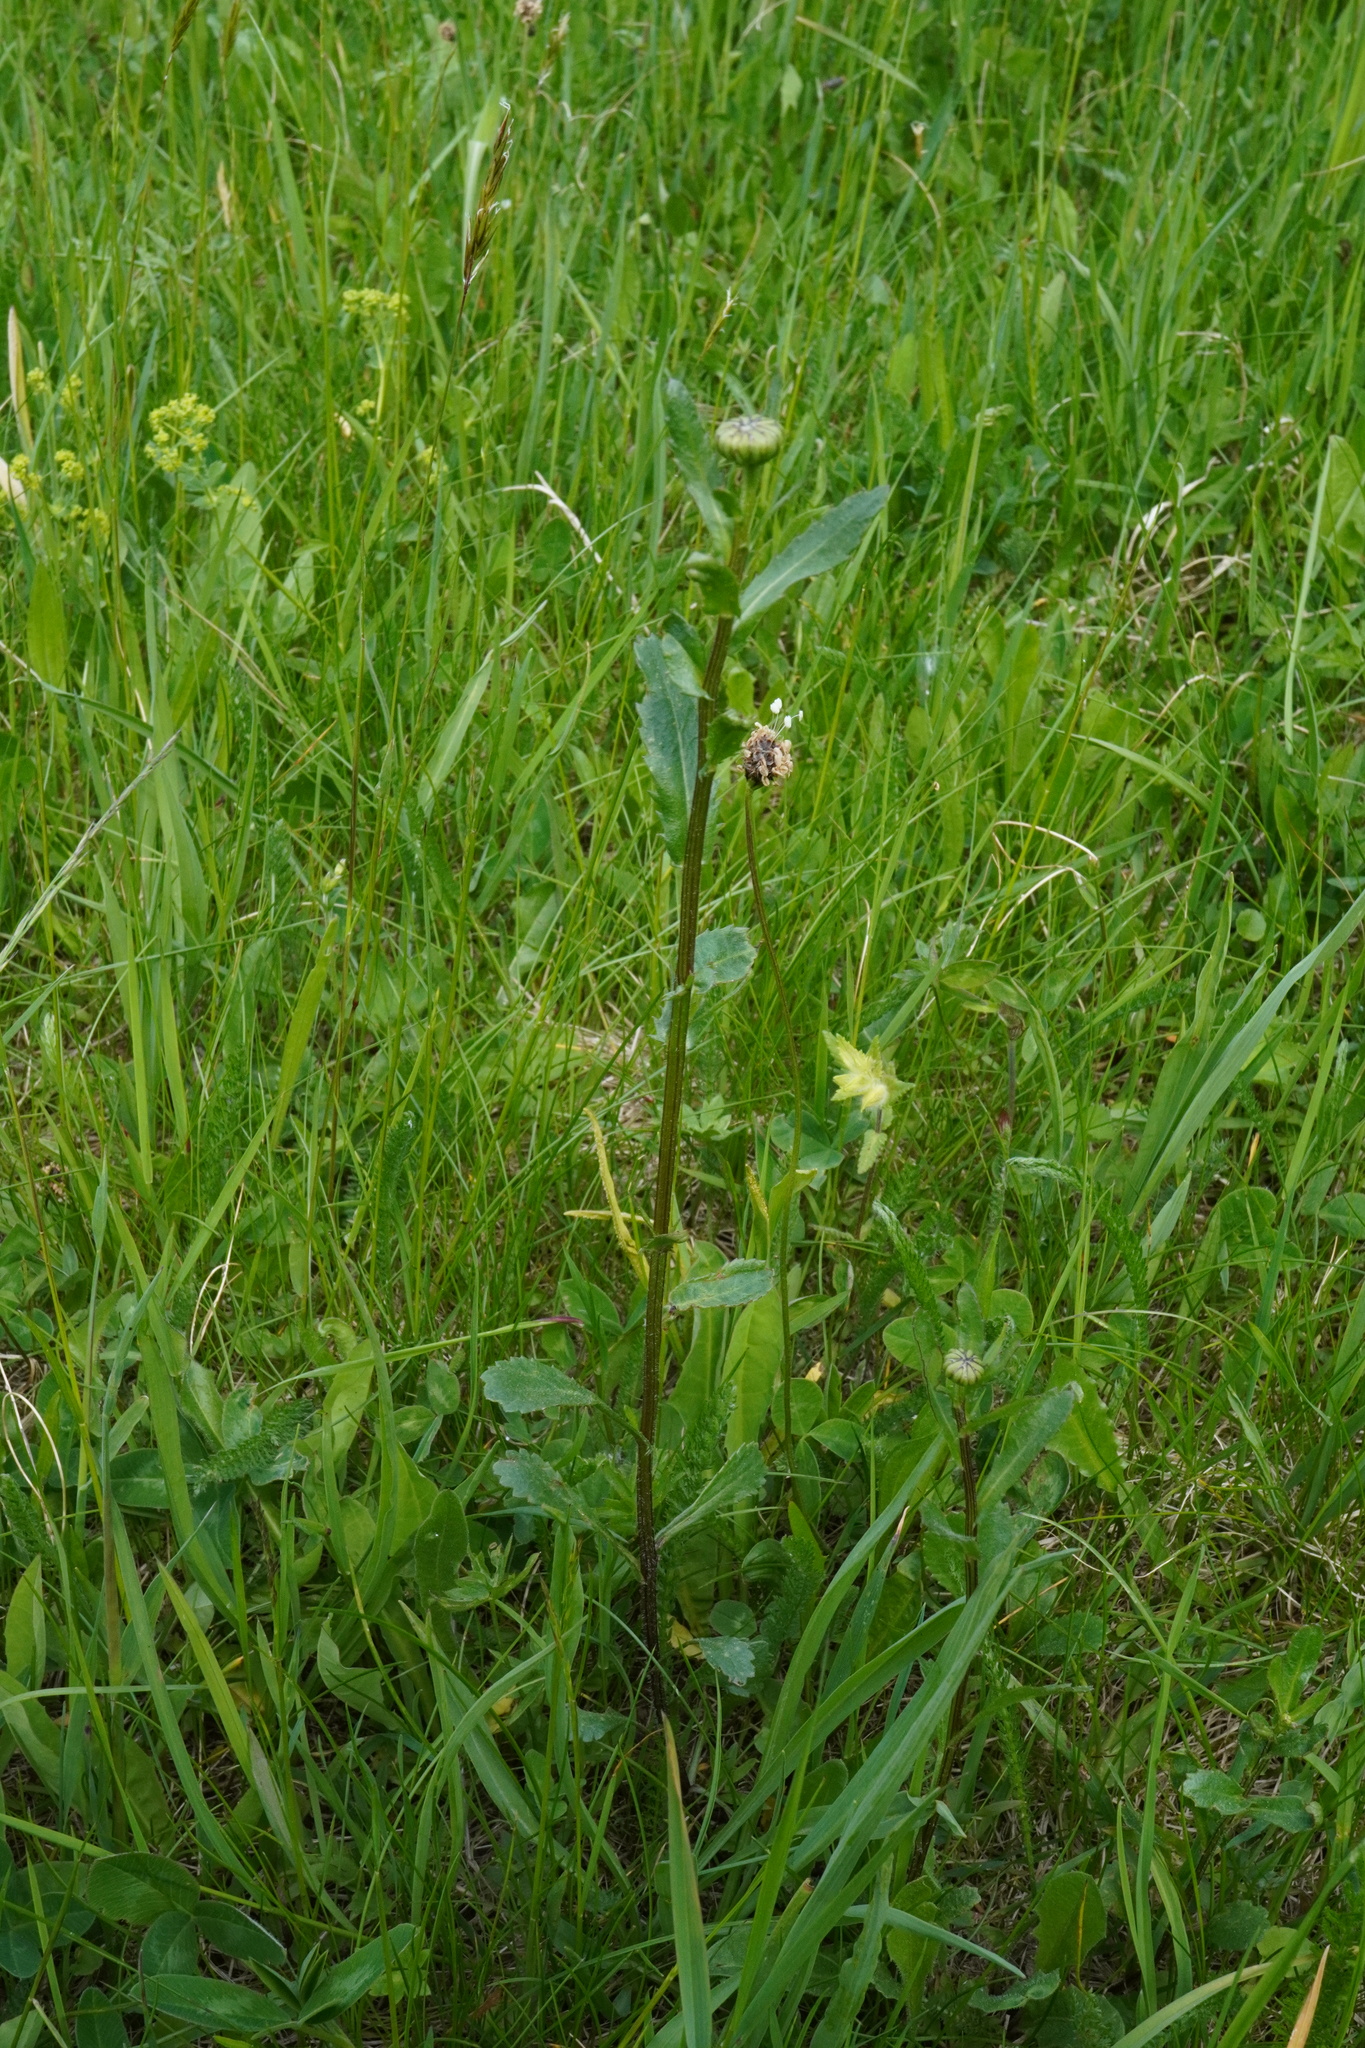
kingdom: Plantae
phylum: Tracheophyta
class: Magnoliopsida
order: Asterales
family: Asteraceae
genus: Leucanthemum
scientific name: Leucanthemum ircutianum
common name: Daisy
